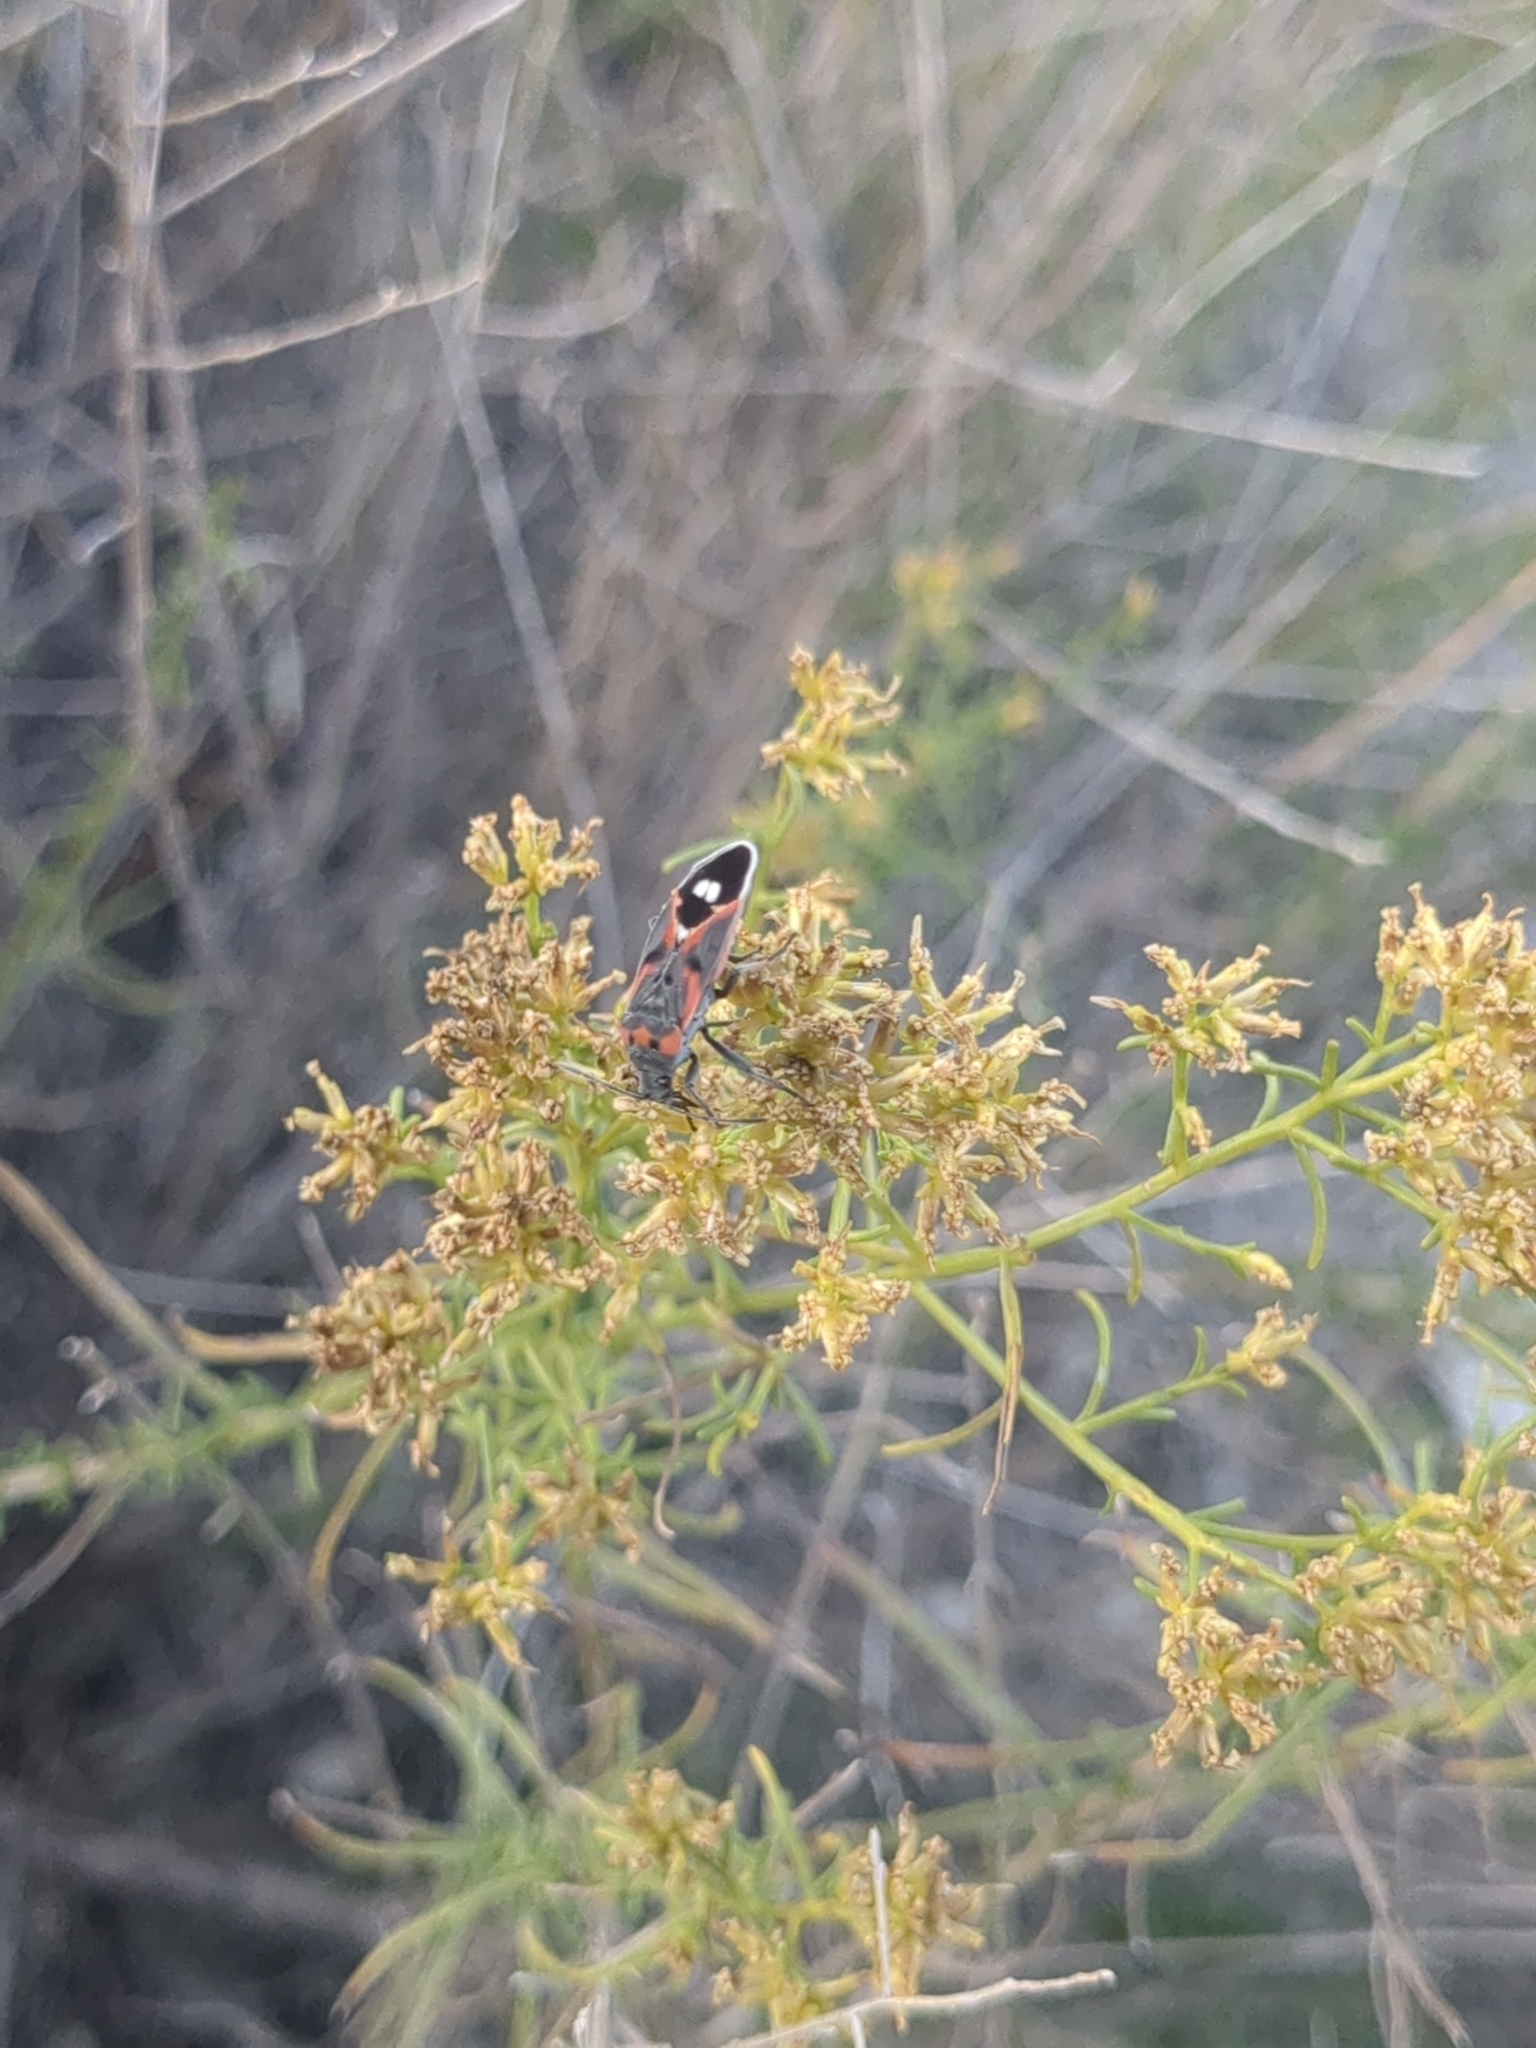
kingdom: Animalia
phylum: Arthropoda
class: Insecta
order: Hemiptera
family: Lygaeidae
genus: Lygaeus
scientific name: Lygaeus kalmii
